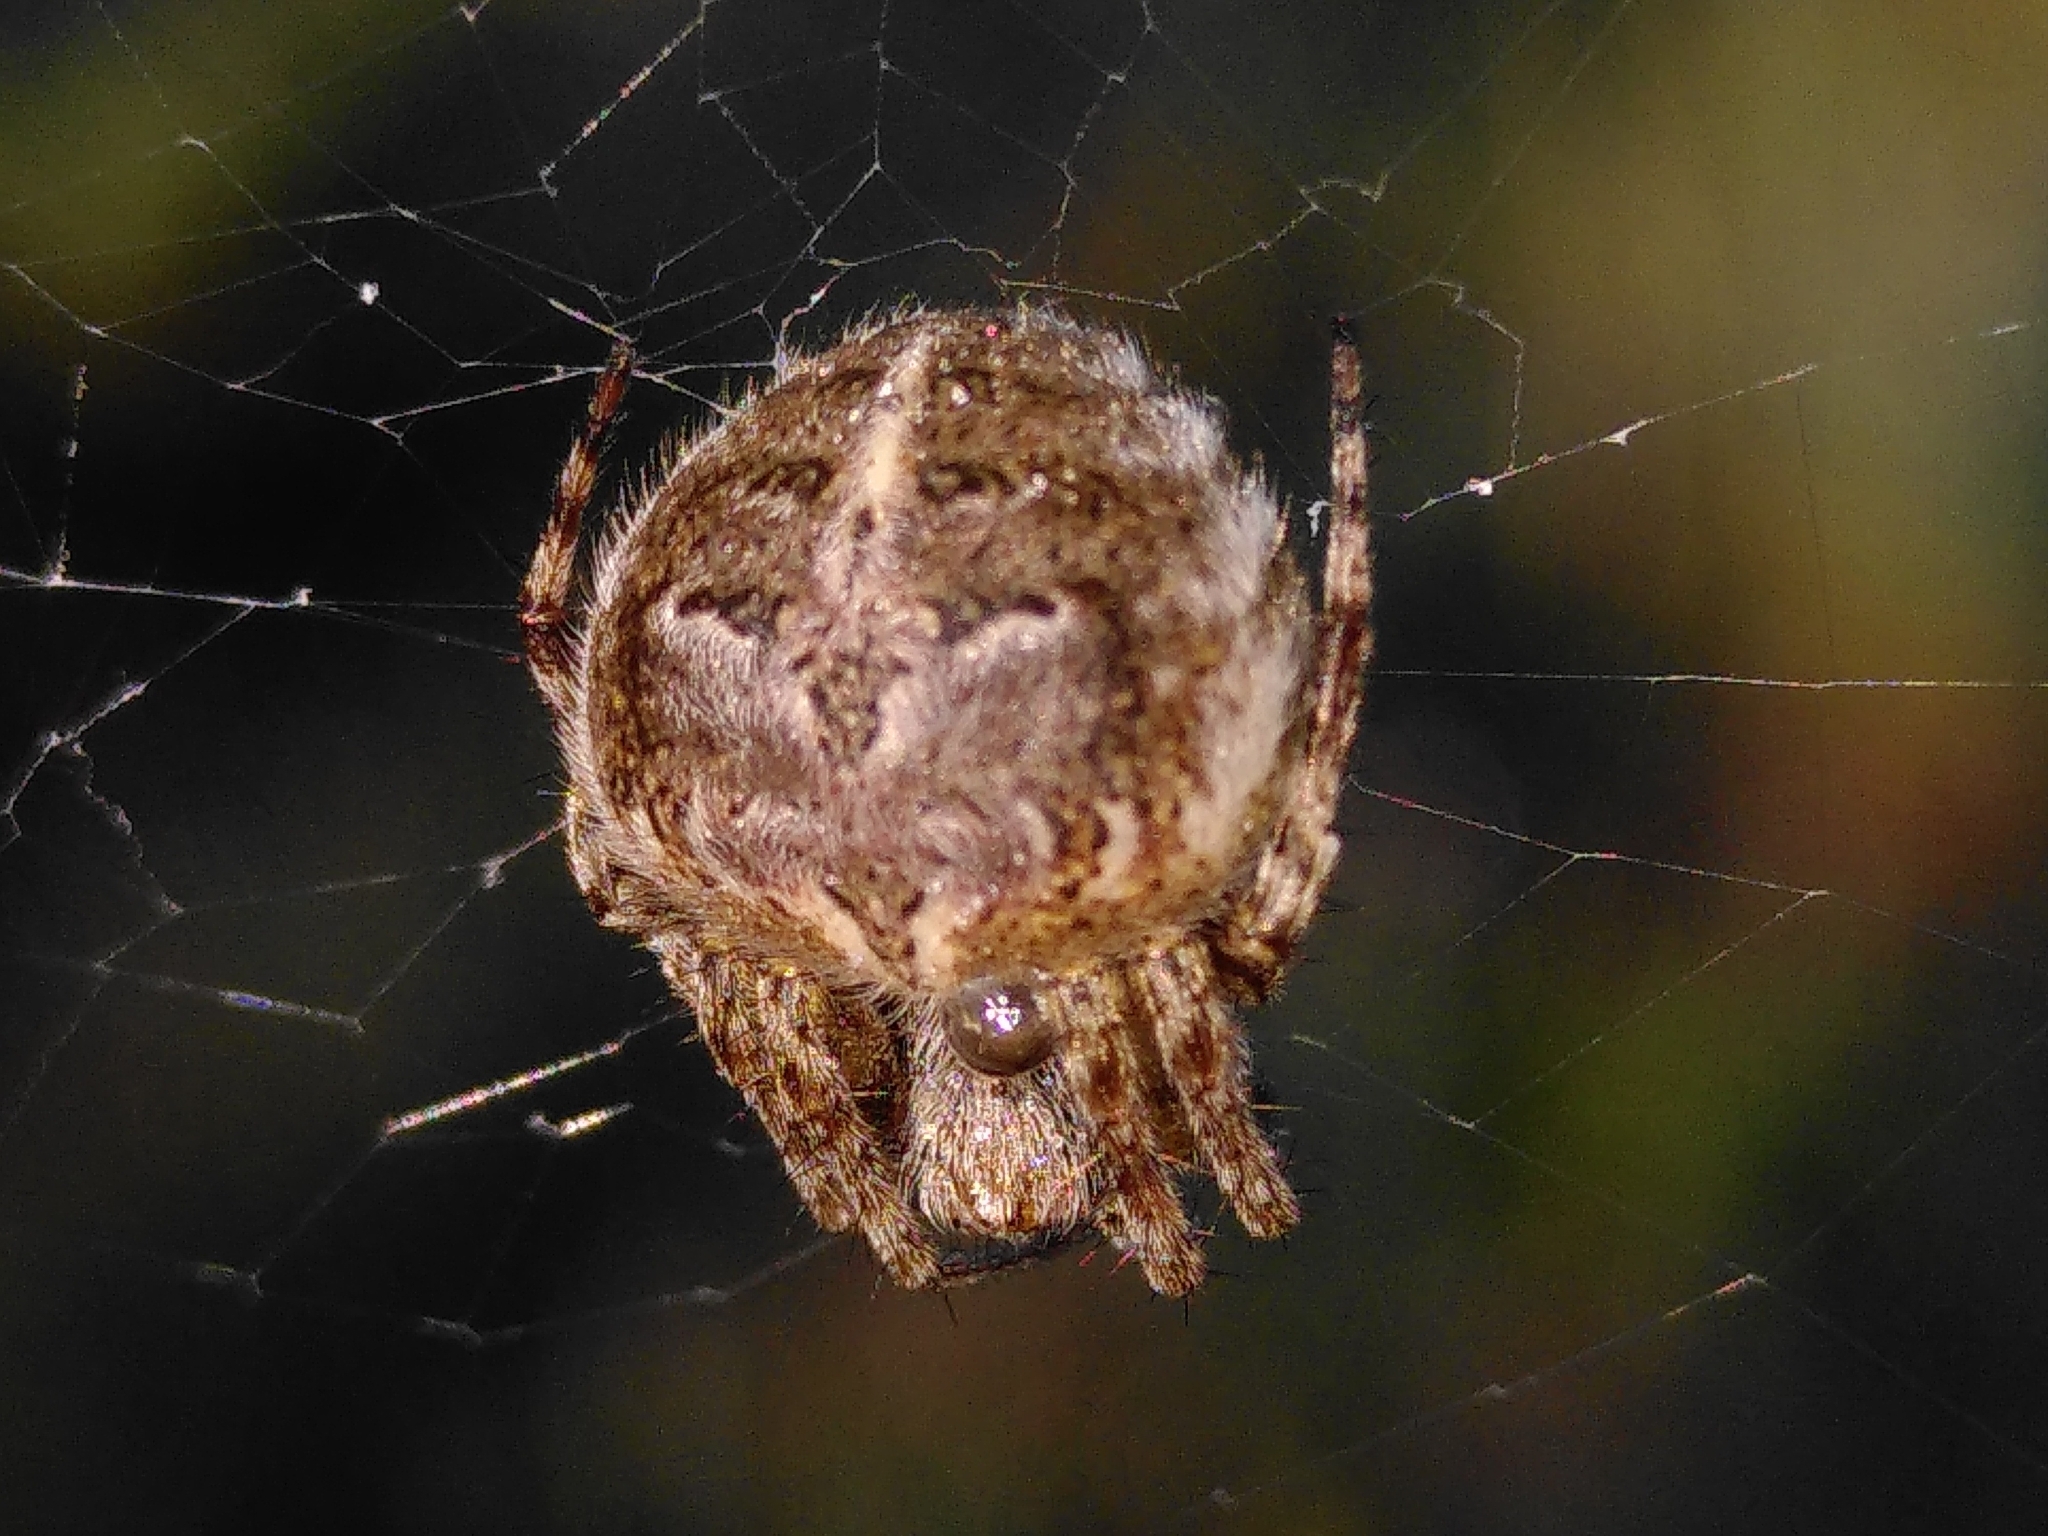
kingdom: Animalia
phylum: Arthropoda
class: Arachnida
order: Araneae
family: Araneidae
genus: Agalenatea
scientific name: Agalenatea redii
